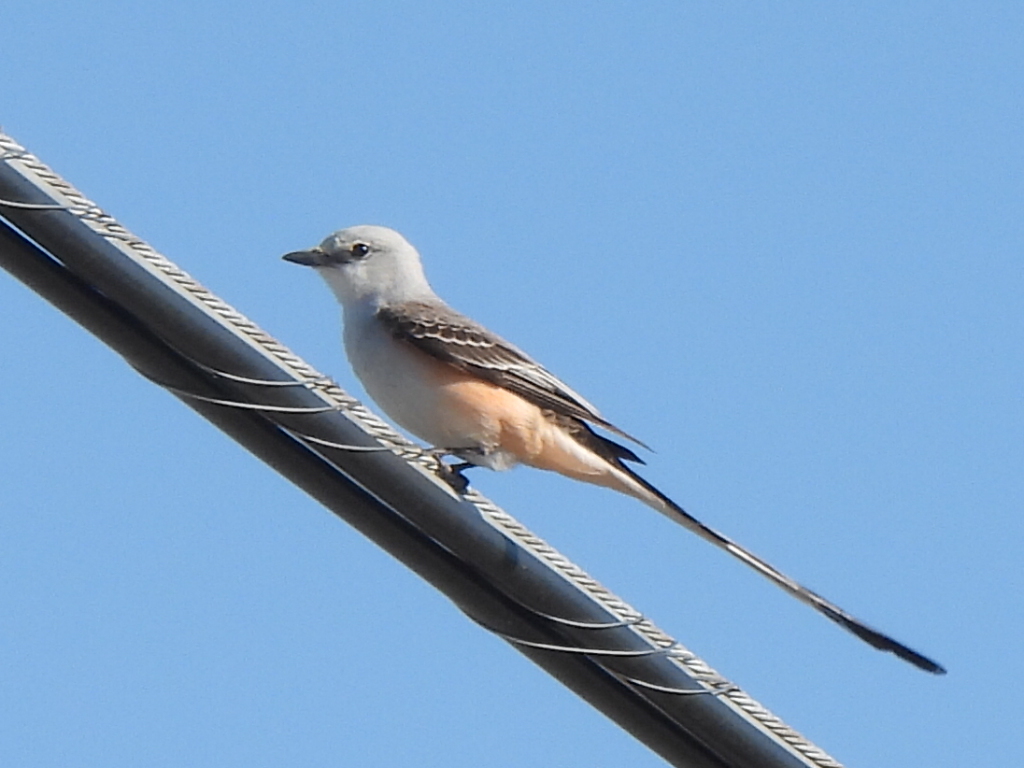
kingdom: Animalia
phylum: Chordata
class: Aves
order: Passeriformes
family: Tyrannidae
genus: Tyrannus
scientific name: Tyrannus forficatus
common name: Scissor-tailed flycatcher
